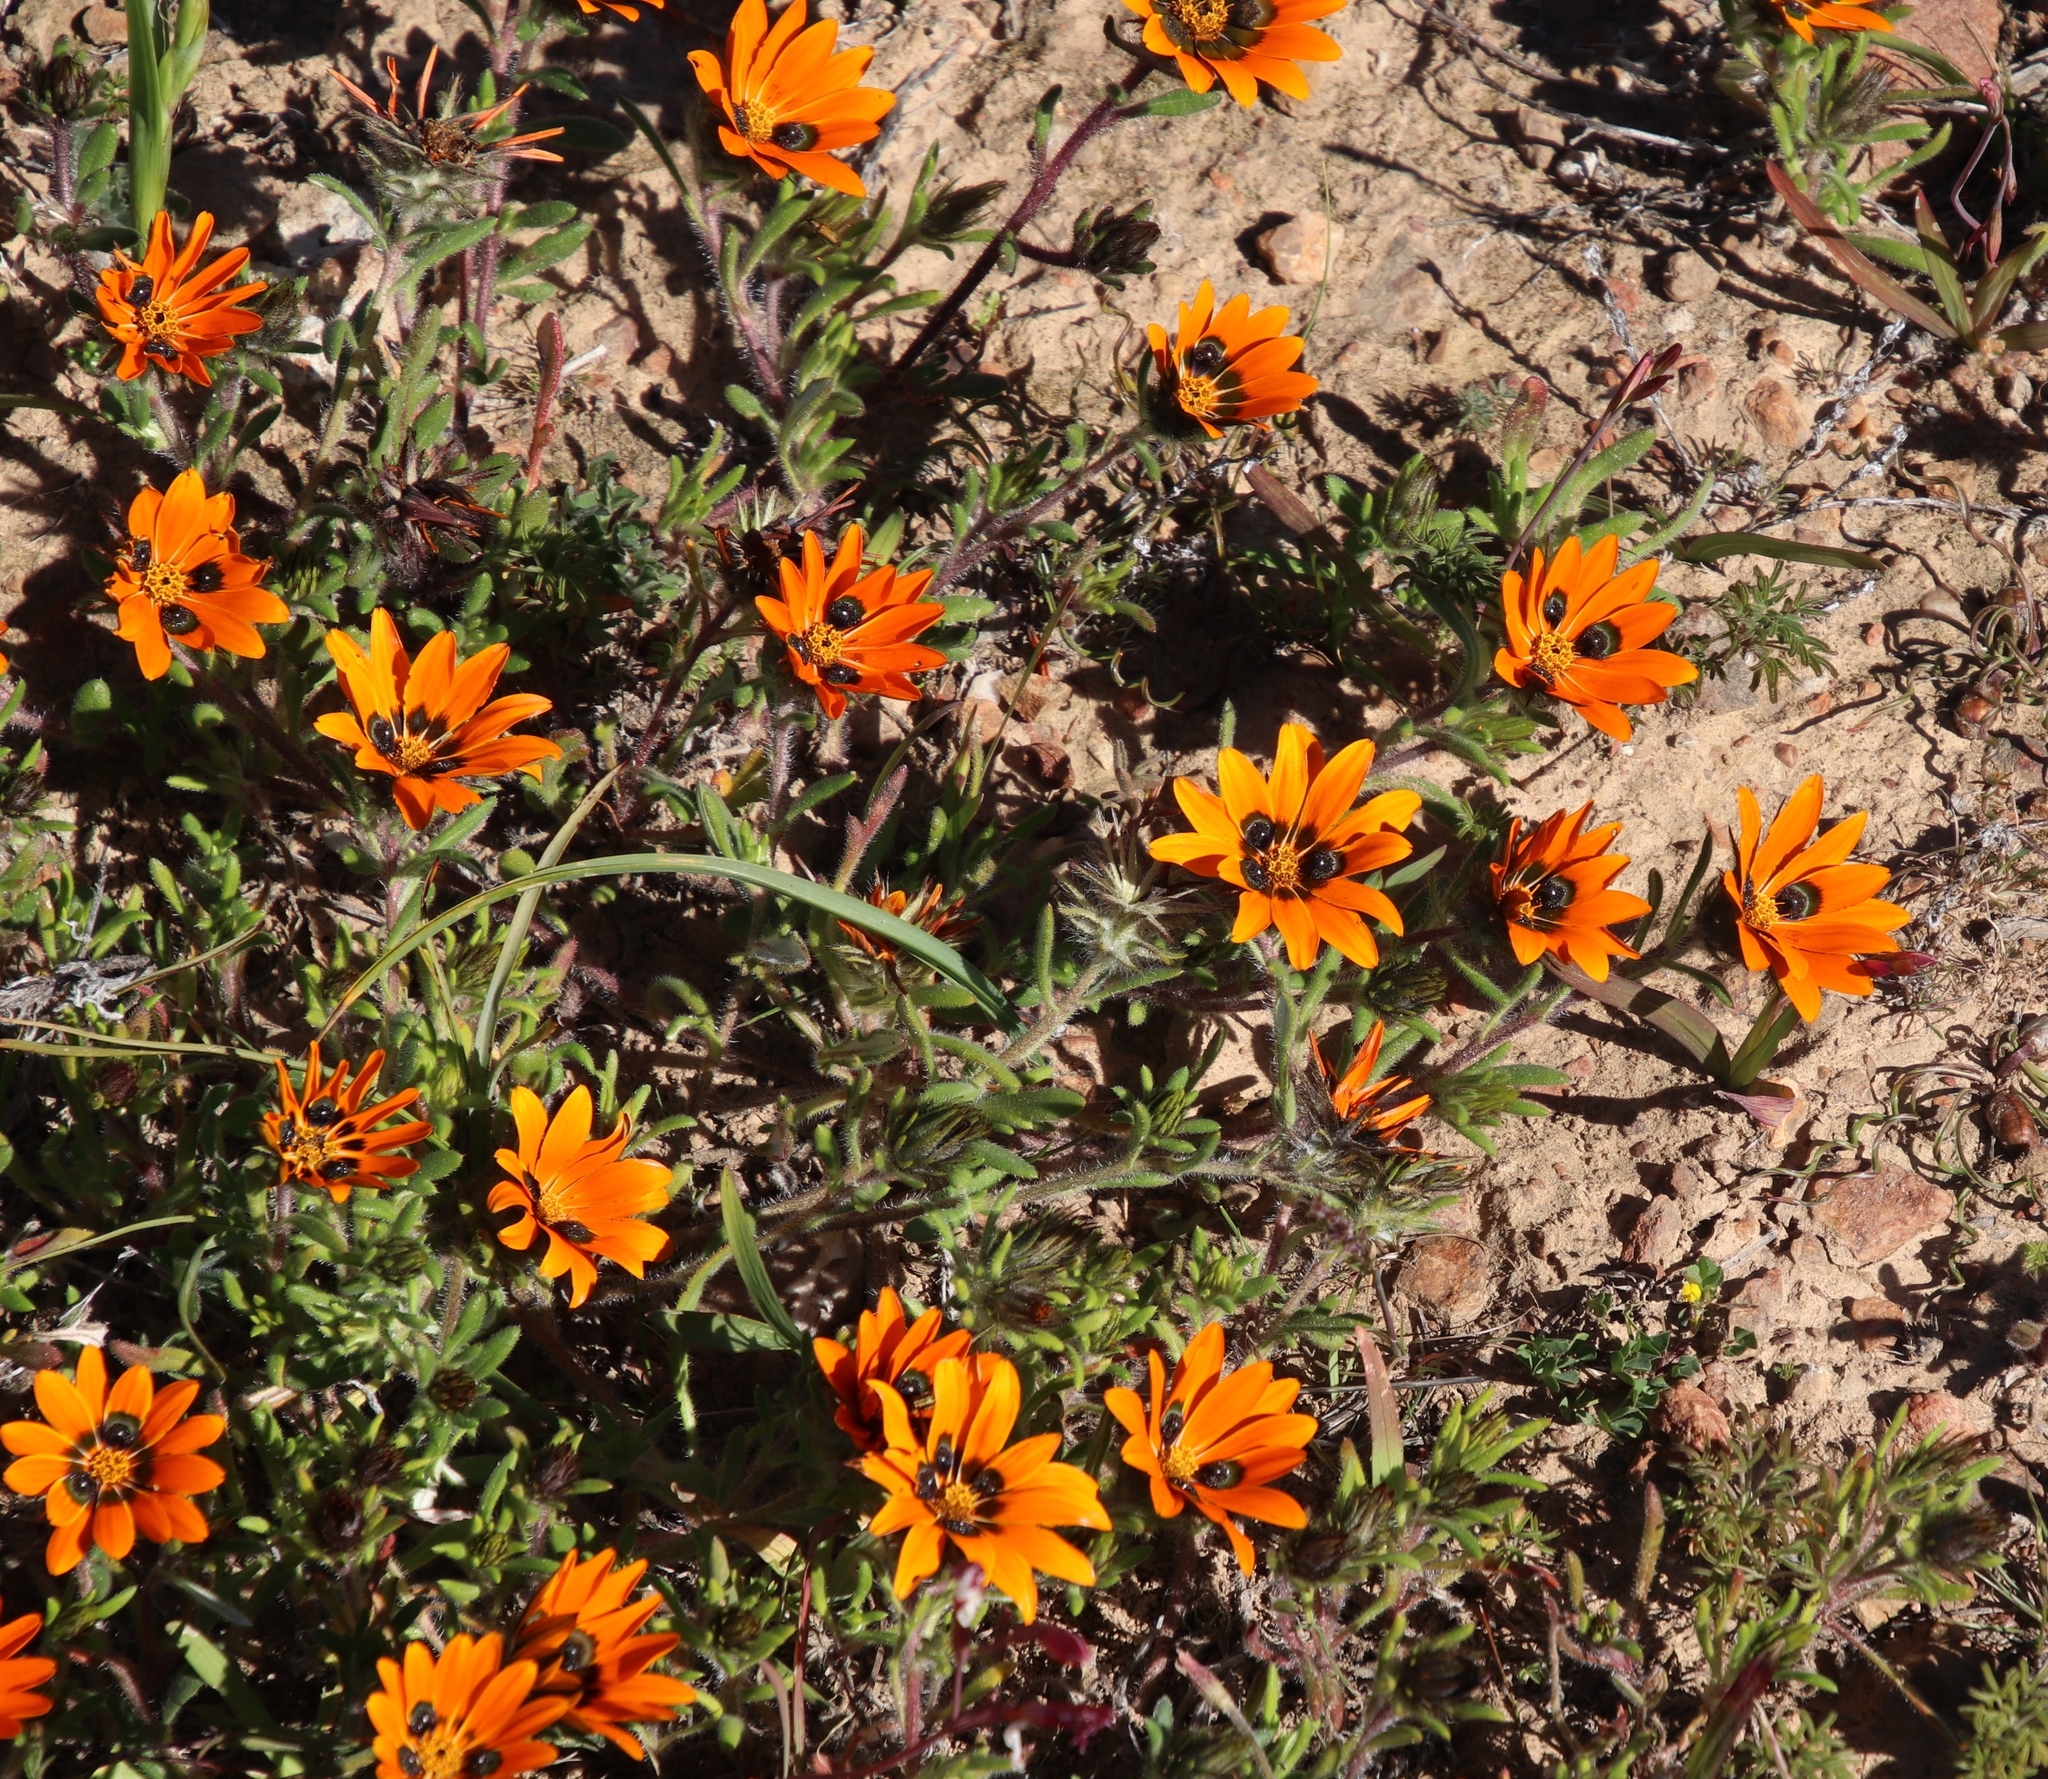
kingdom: Plantae
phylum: Tracheophyta
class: Magnoliopsida
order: Asterales
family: Asteraceae
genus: Gorteria
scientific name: Gorteria diffusa
